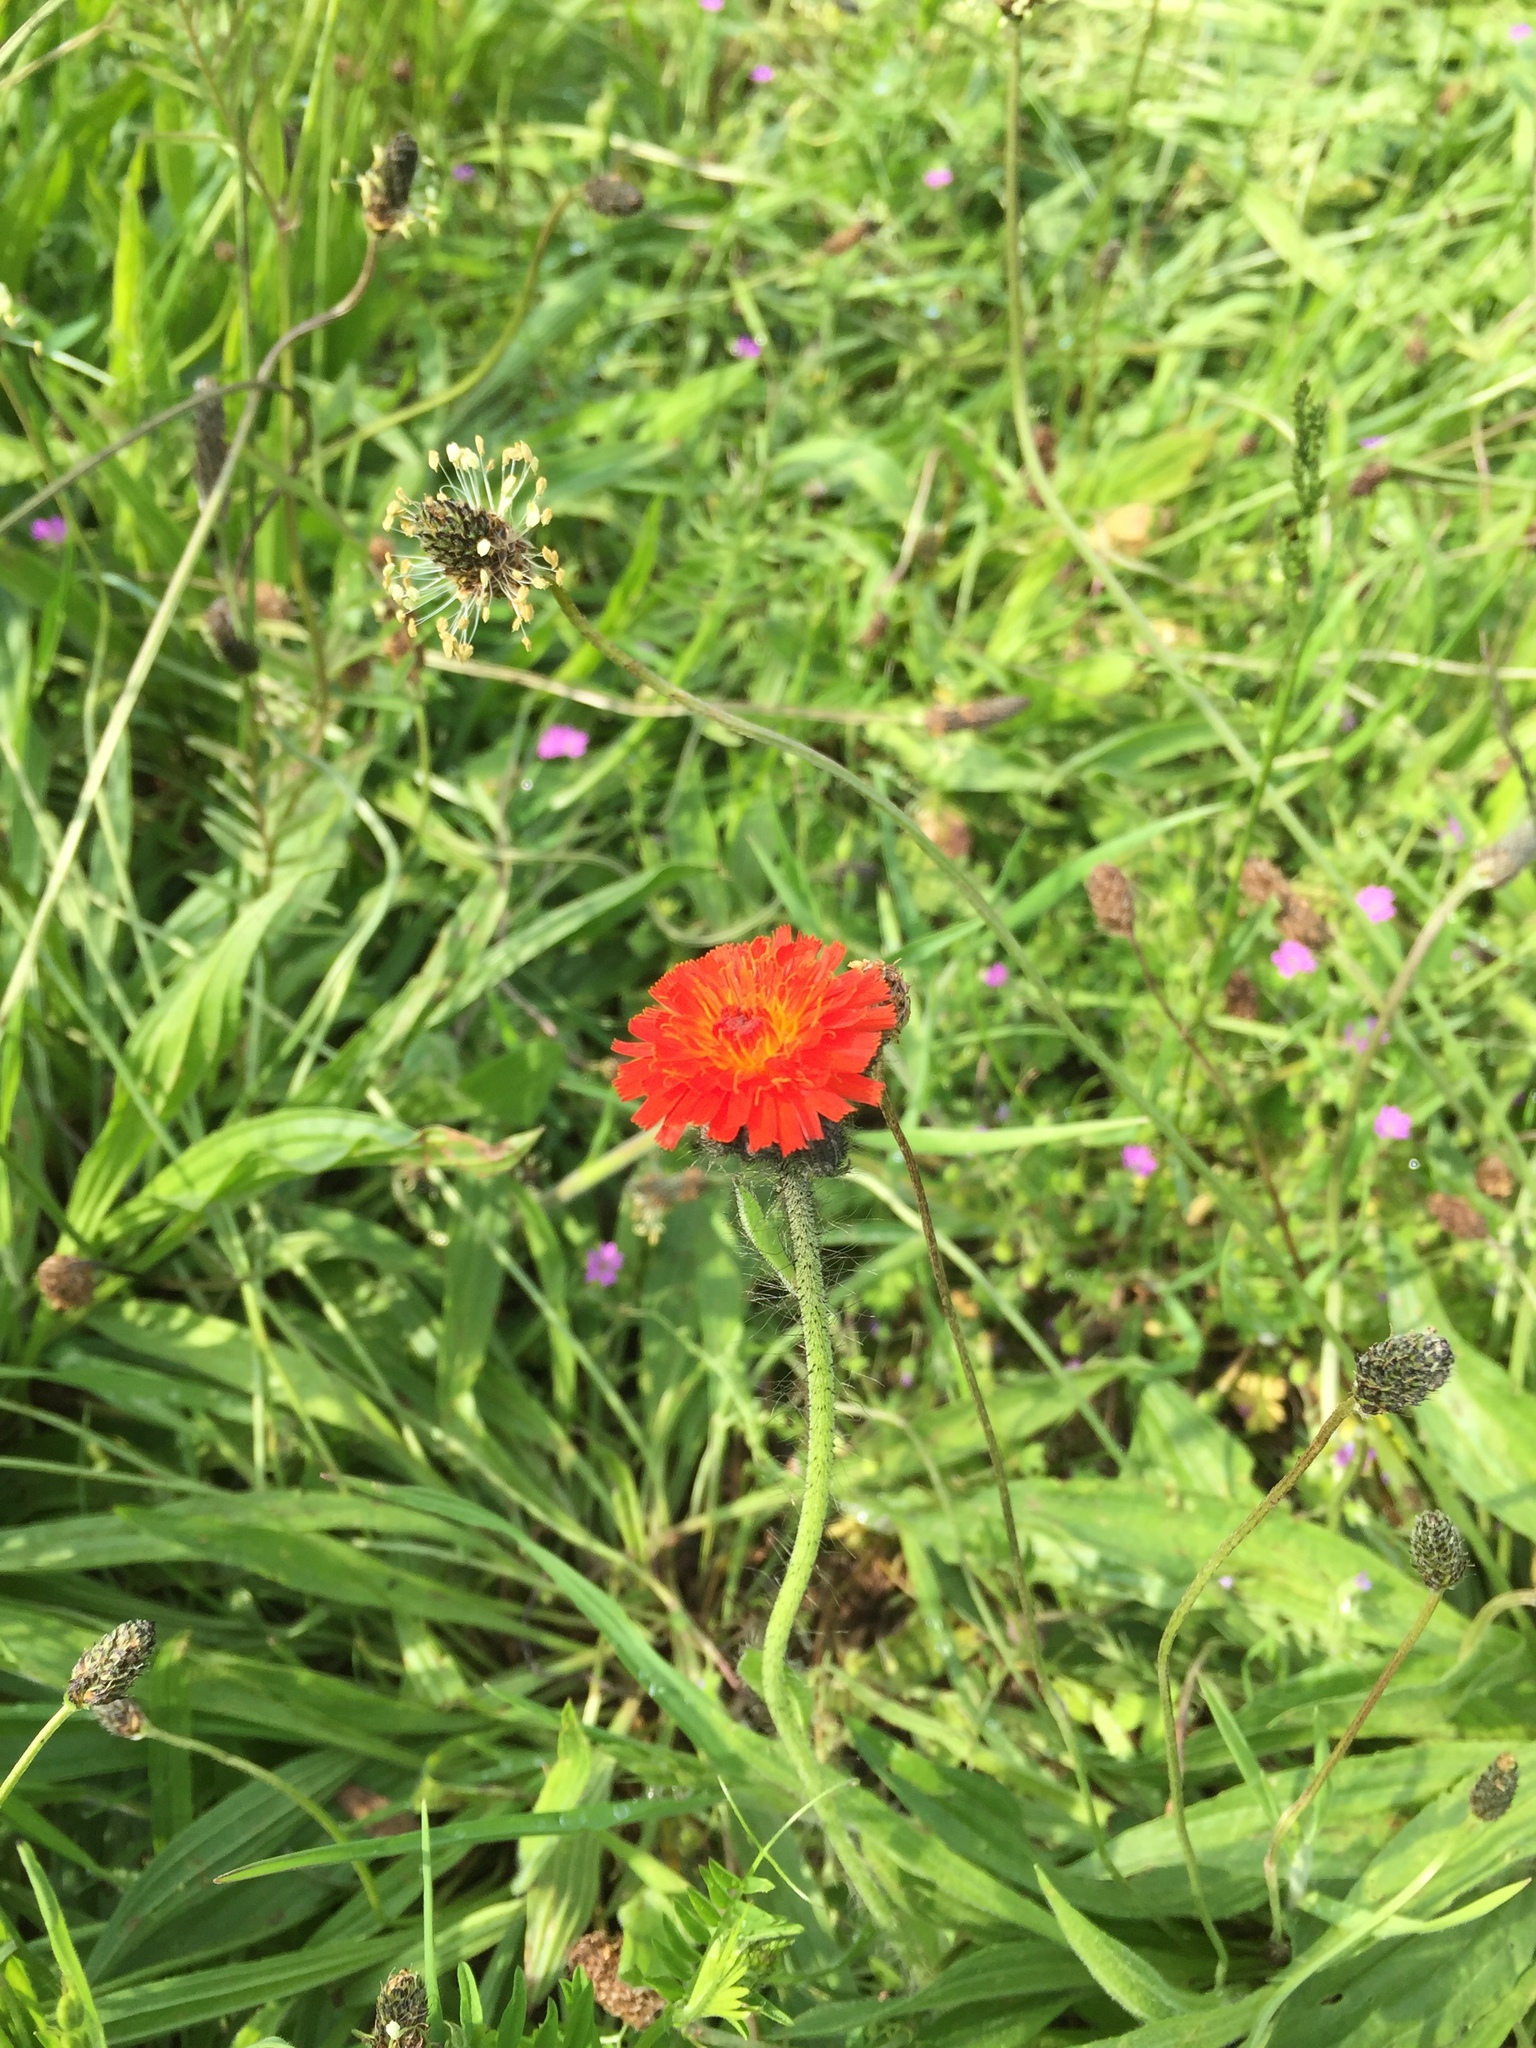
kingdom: Plantae
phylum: Tracheophyta
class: Magnoliopsida
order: Asterales
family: Asteraceae
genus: Pilosella
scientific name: Pilosella aurantiaca
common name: Fox-and-cubs
